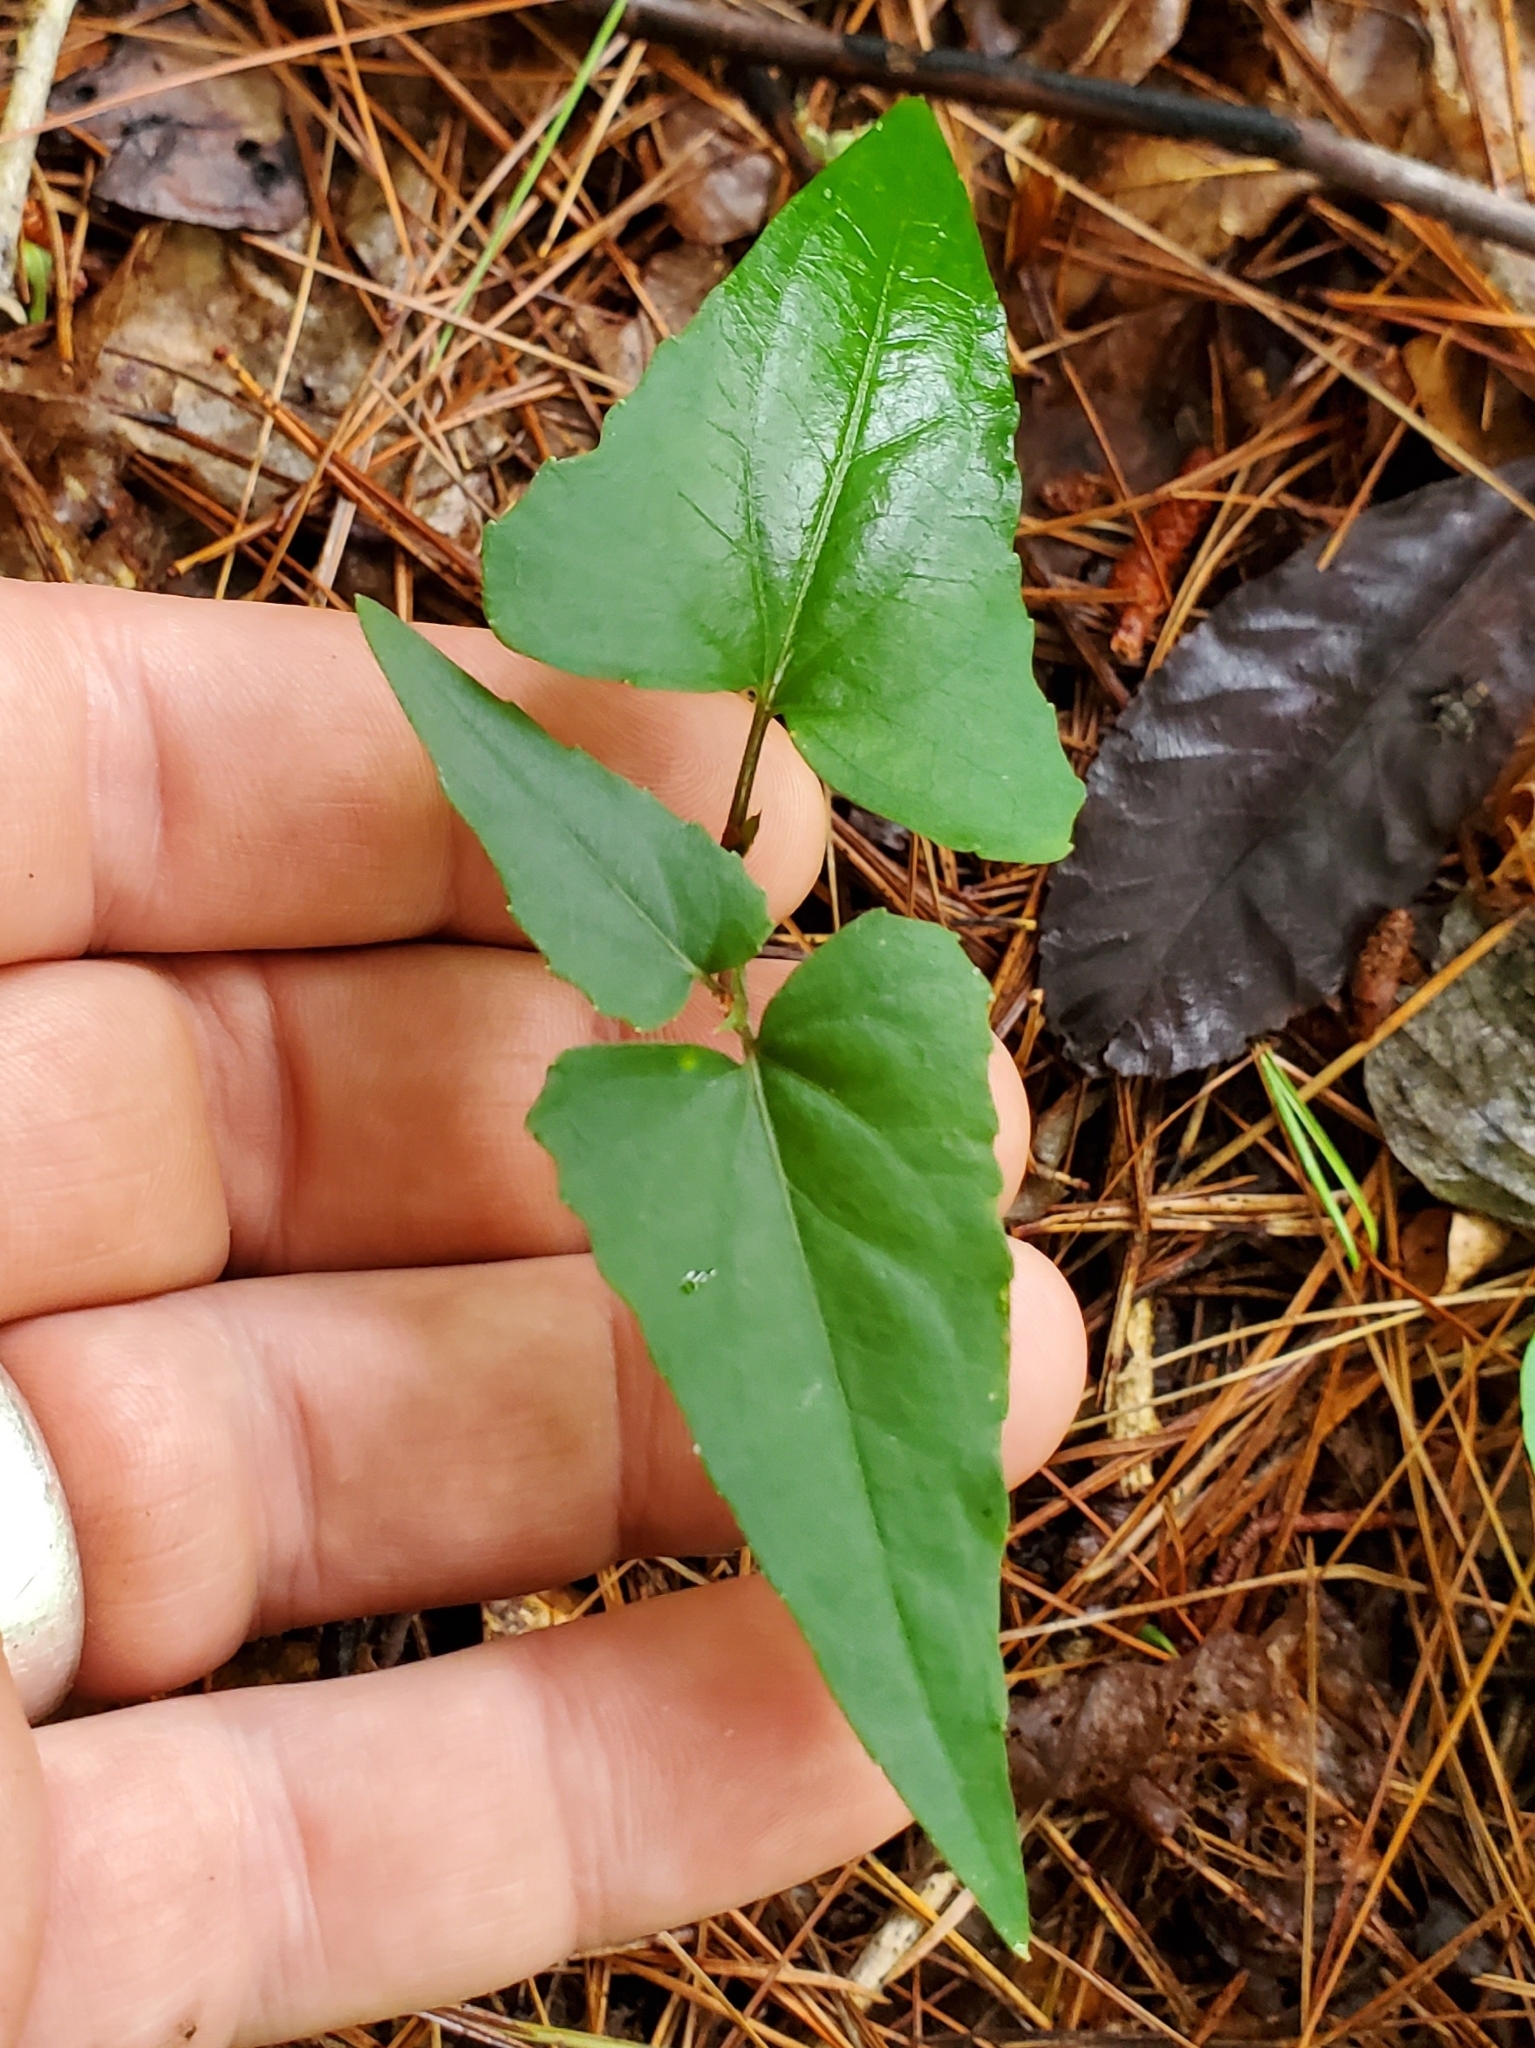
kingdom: Plantae
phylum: Tracheophyta
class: Magnoliopsida
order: Malpighiales
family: Violaceae
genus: Viola
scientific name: Viola hastata
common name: Spear-leaf violet
